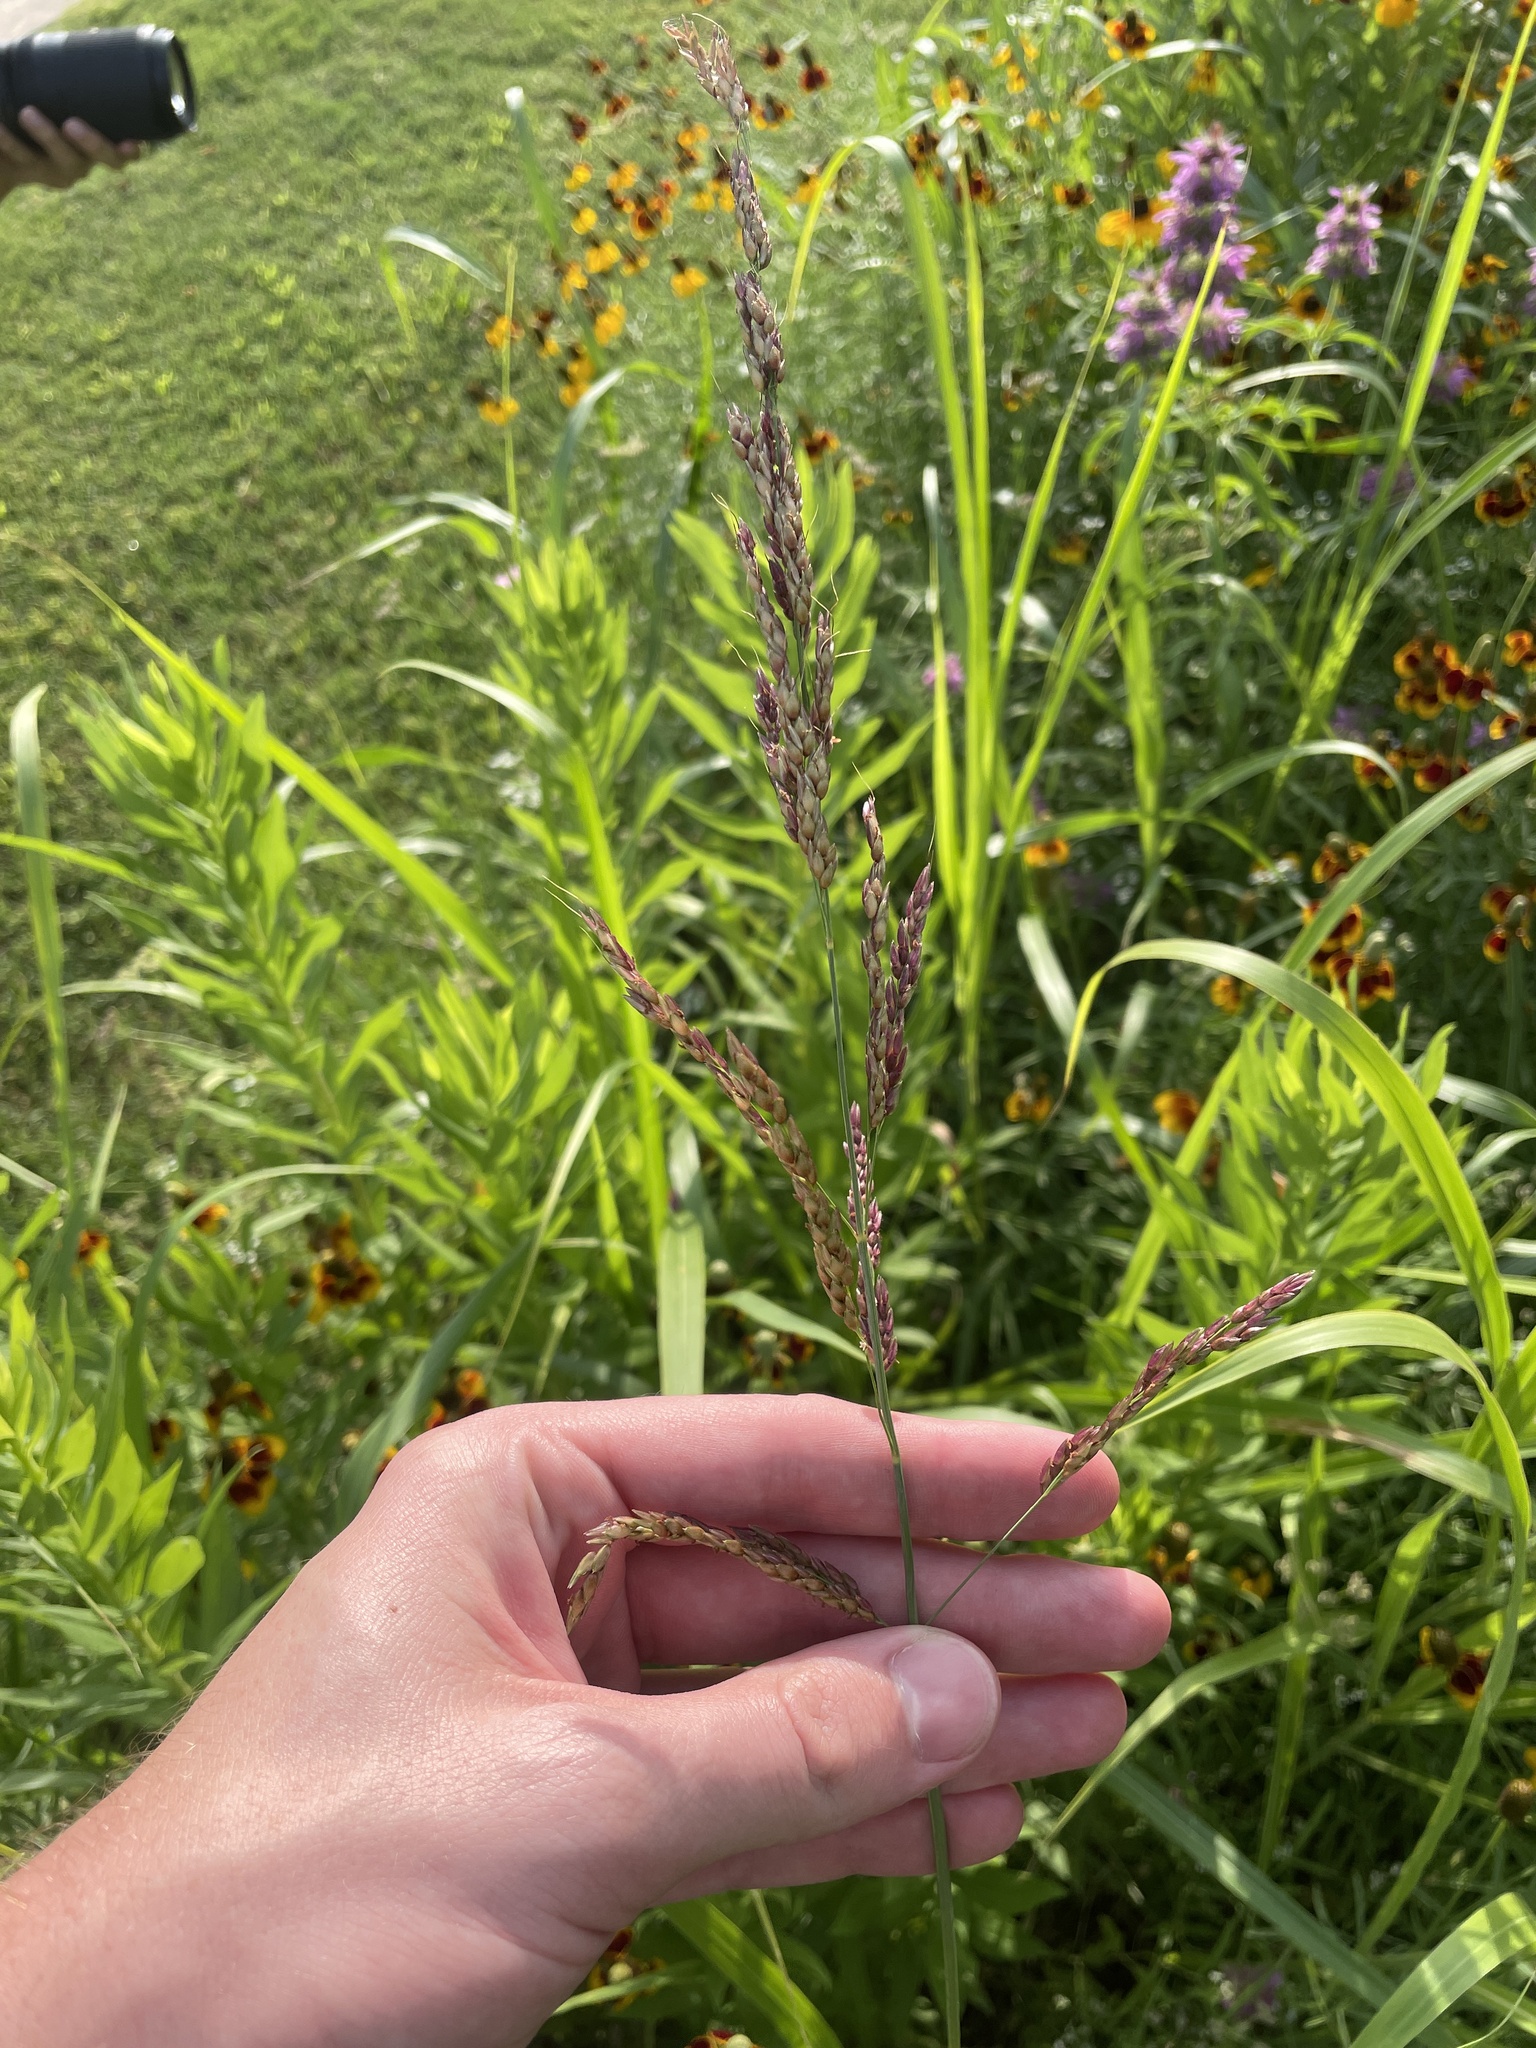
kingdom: Plantae
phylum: Tracheophyta
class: Liliopsida
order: Poales
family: Poaceae
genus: Sorghum
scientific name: Sorghum halepense
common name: Johnson-grass
